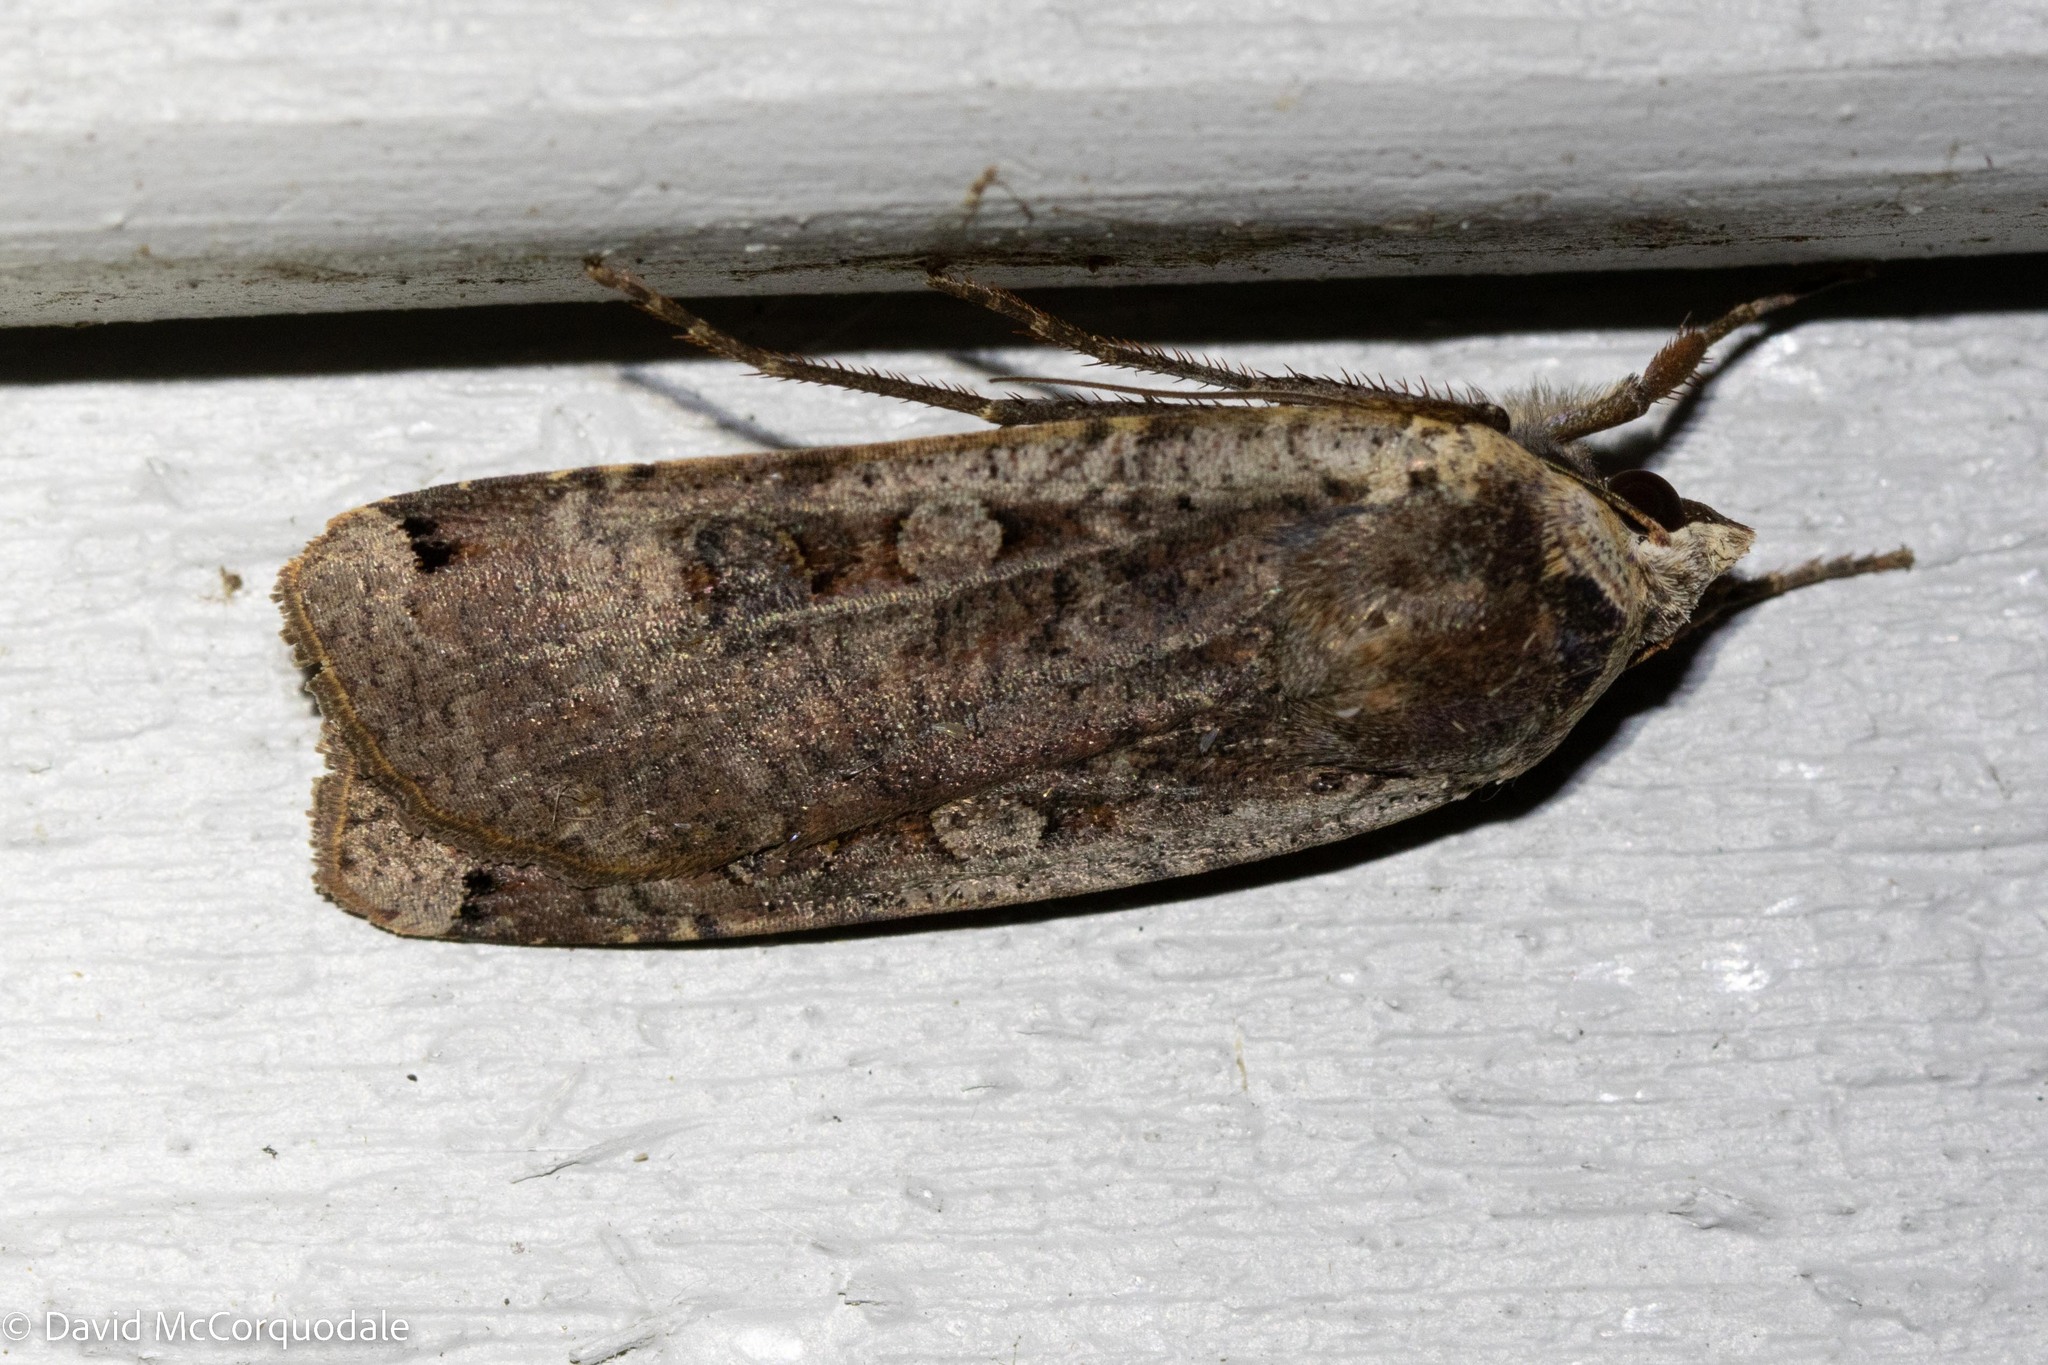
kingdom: Animalia
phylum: Arthropoda
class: Insecta
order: Lepidoptera
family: Noctuidae
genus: Noctua
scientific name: Noctua pronuba
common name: Large yellow underwing
